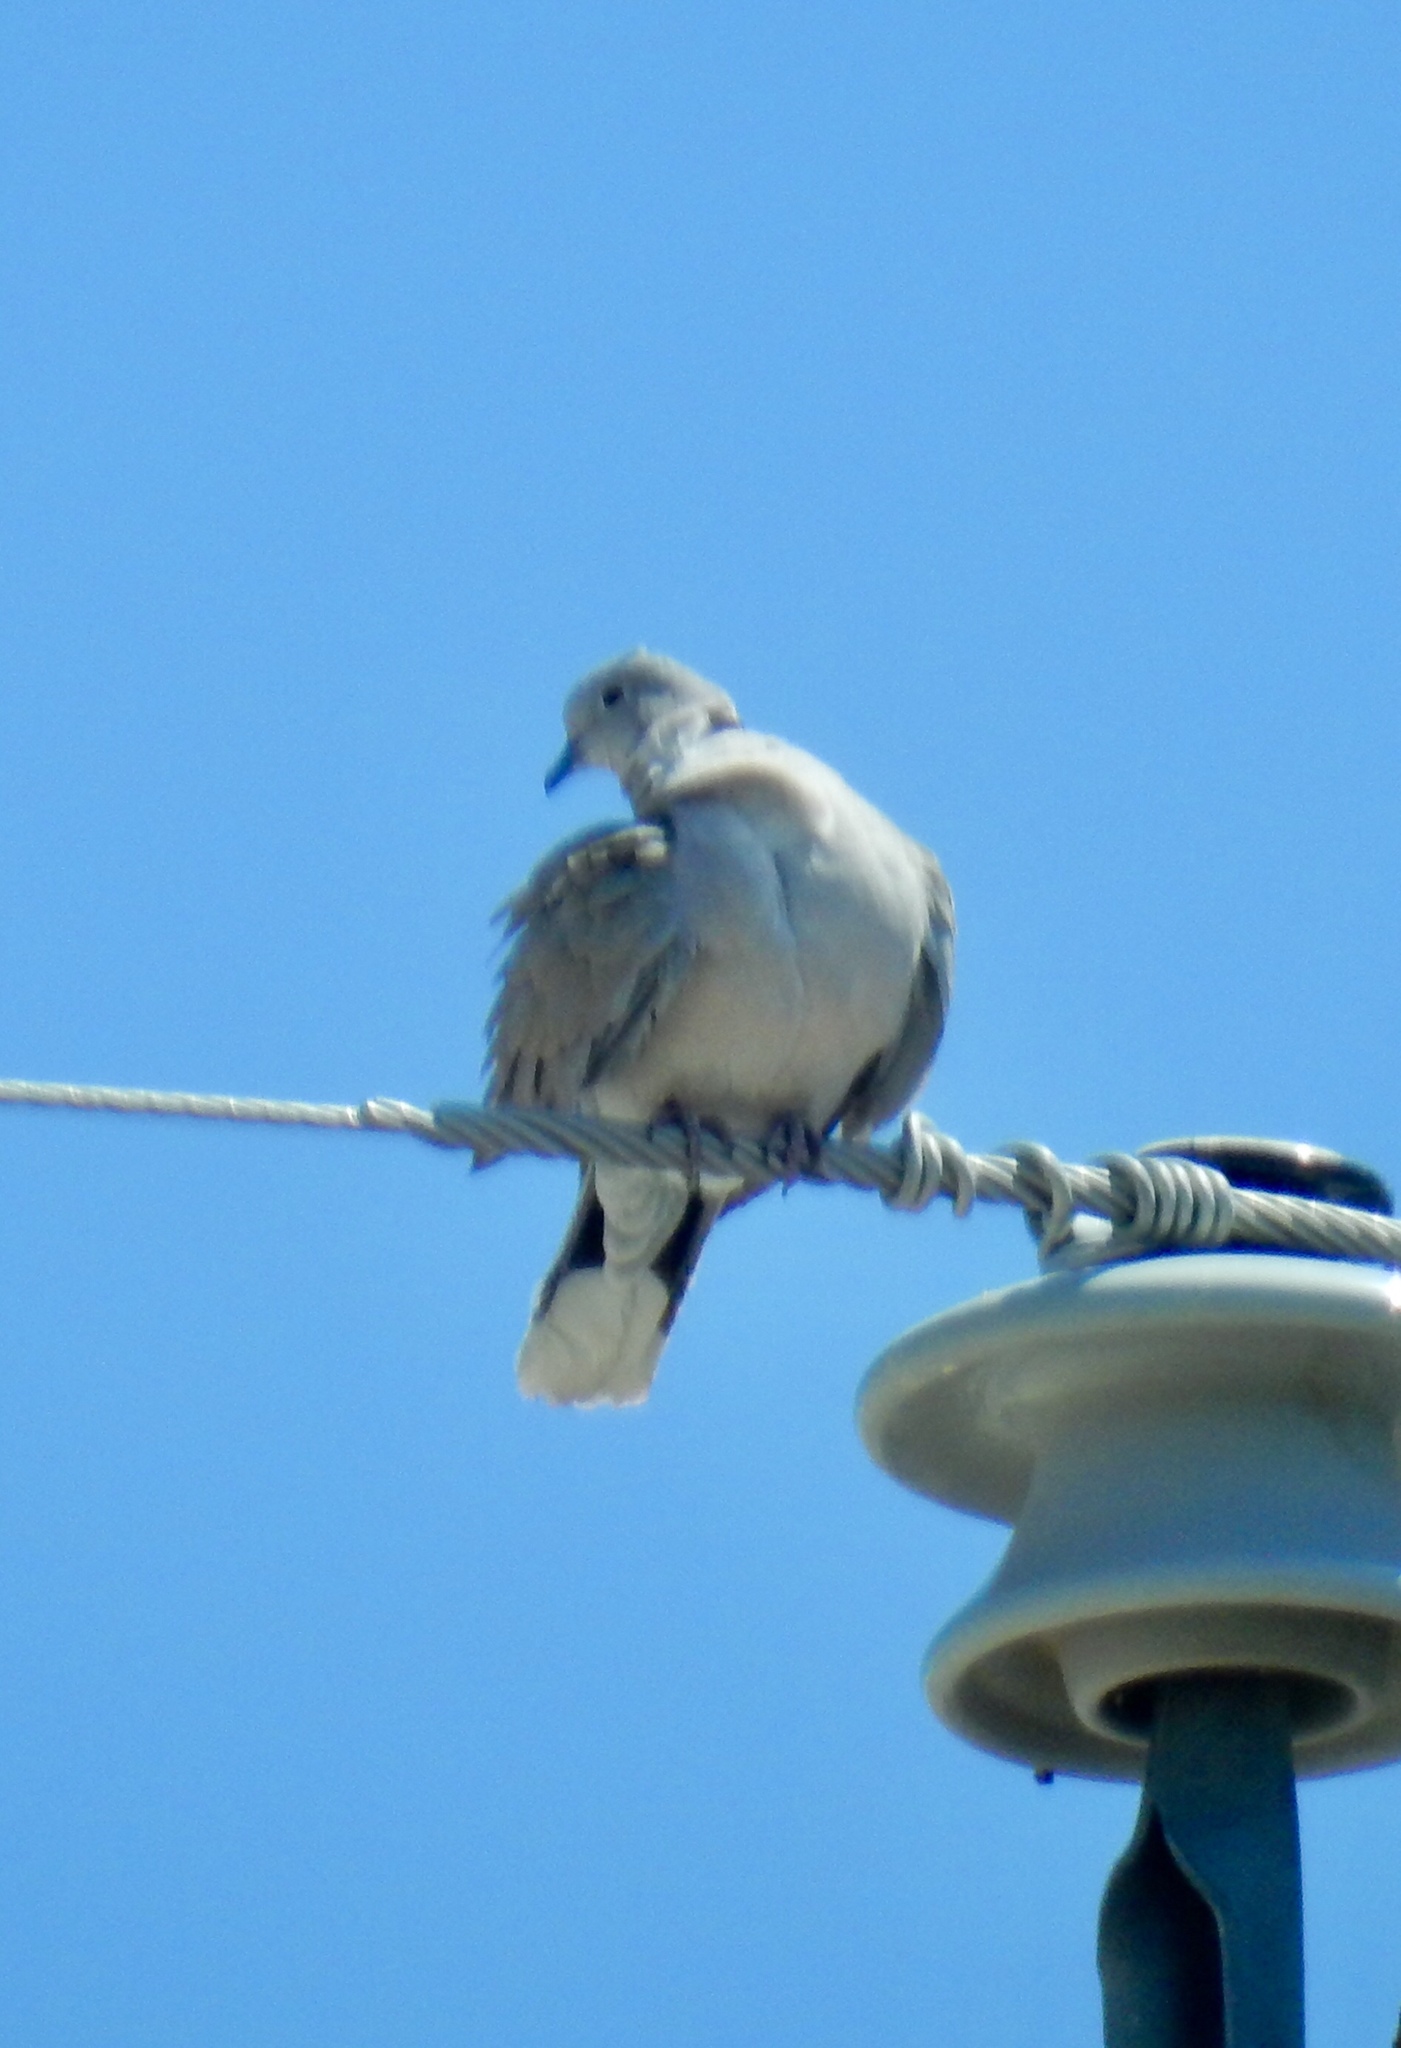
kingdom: Animalia
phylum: Chordata
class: Aves
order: Columbiformes
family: Columbidae
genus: Streptopelia
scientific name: Streptopelia decaocto
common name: Eurasian collared dove
